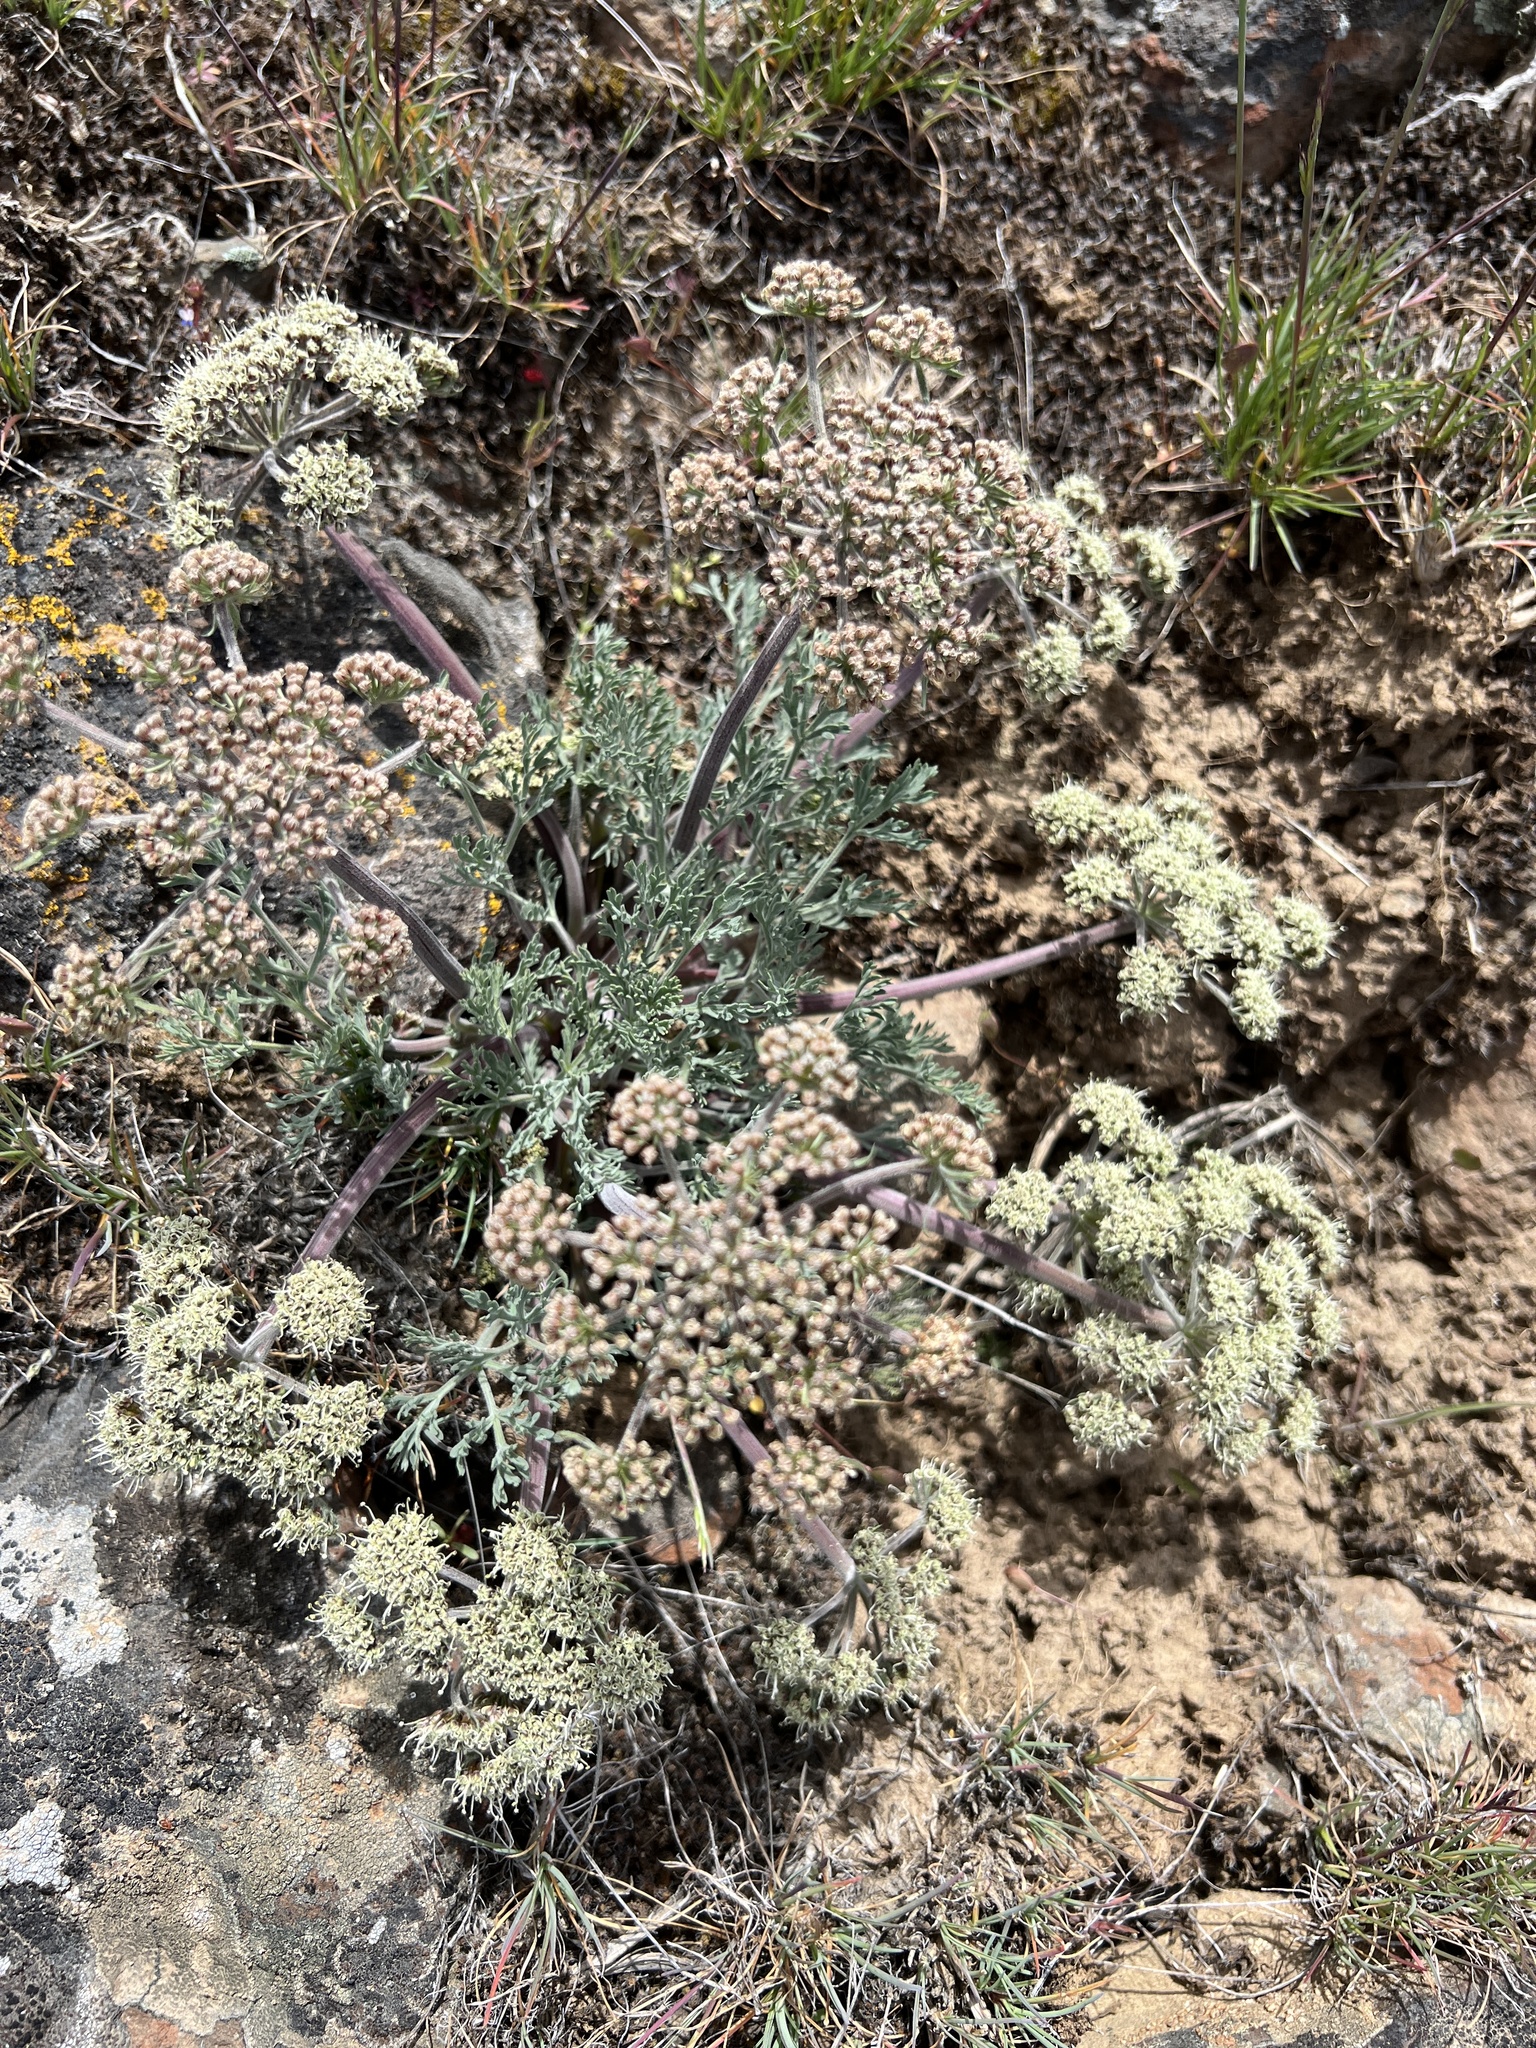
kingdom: Plantae
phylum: Tracheophyta
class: Magnoliopsida
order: Apiales
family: Apiaceae
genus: Lomatium
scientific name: Lomatium macrocarpum
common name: Big-seed biscuitroot
